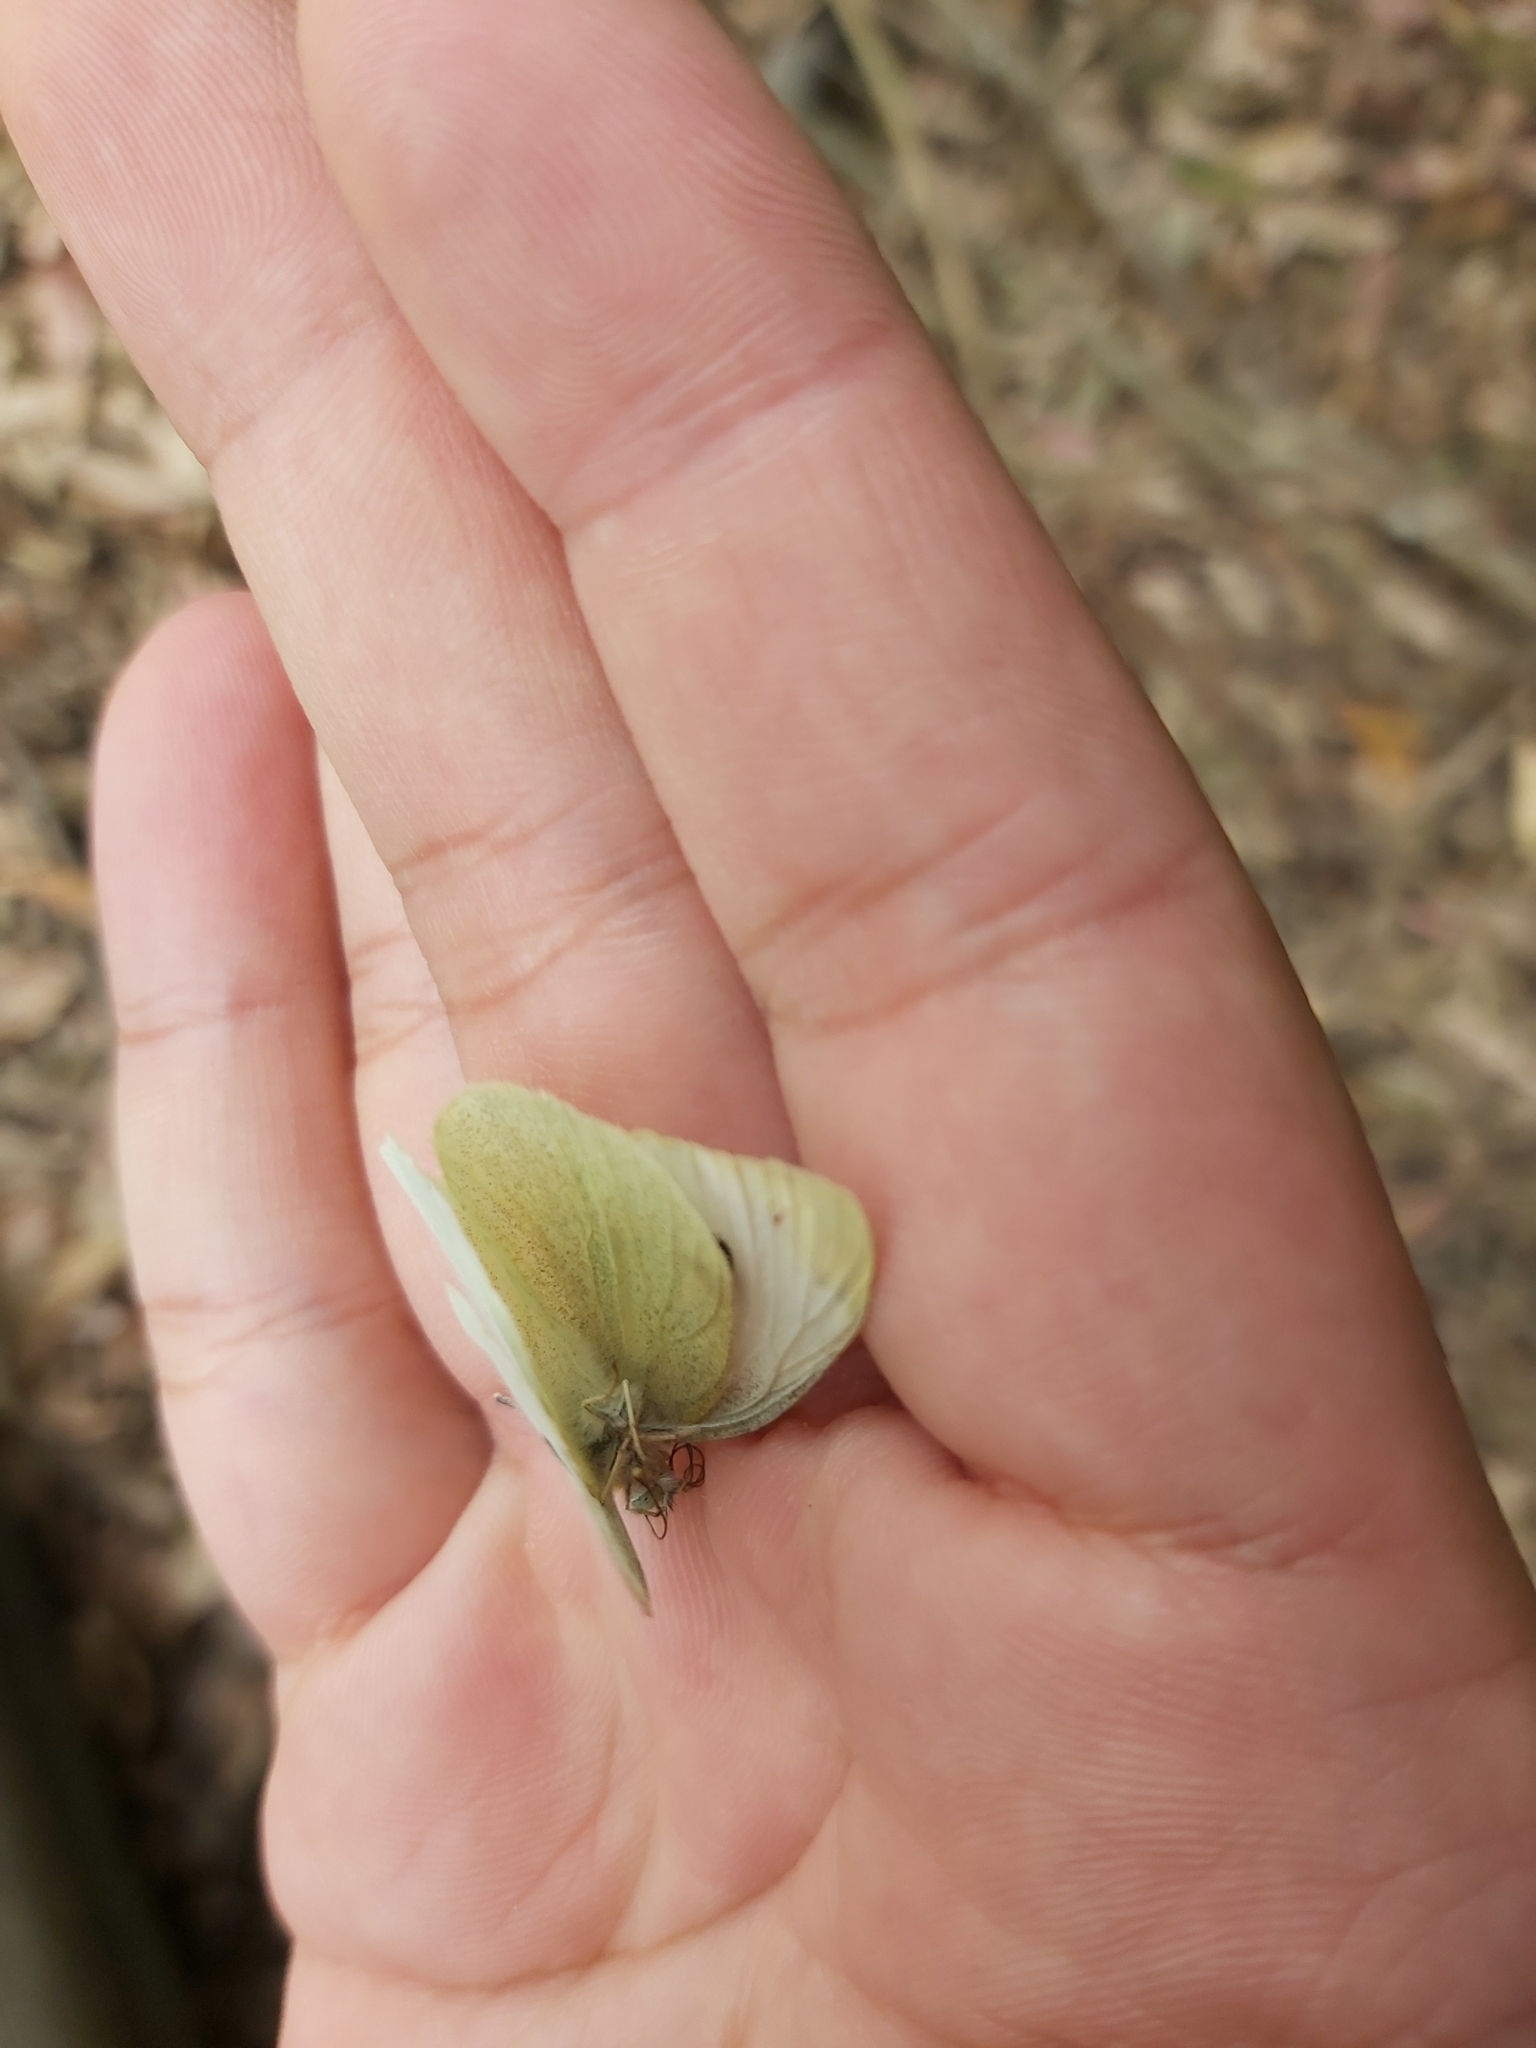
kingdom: Animalia
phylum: Arthropoda
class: Insecta
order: Lepidoptera
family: Pieridae
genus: Pieris
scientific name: Pieris rapae
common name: Small white
